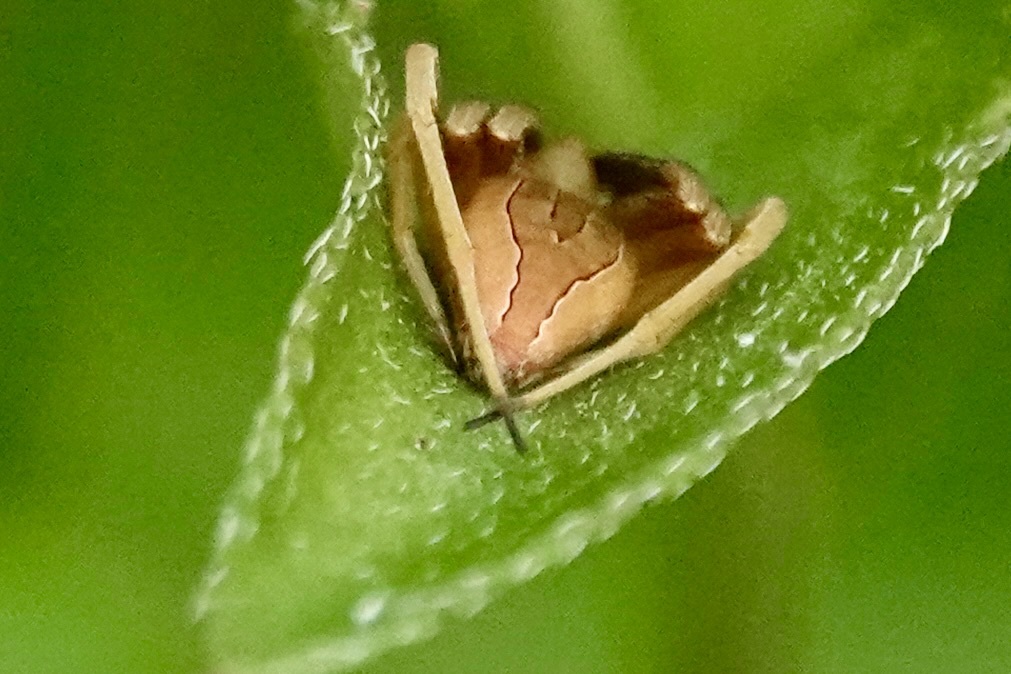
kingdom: Animalia
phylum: Arthropoda
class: Arachnida
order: Araneae
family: Araneidae
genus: Acacesia
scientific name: Acacesia hamata
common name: Orb weavers
